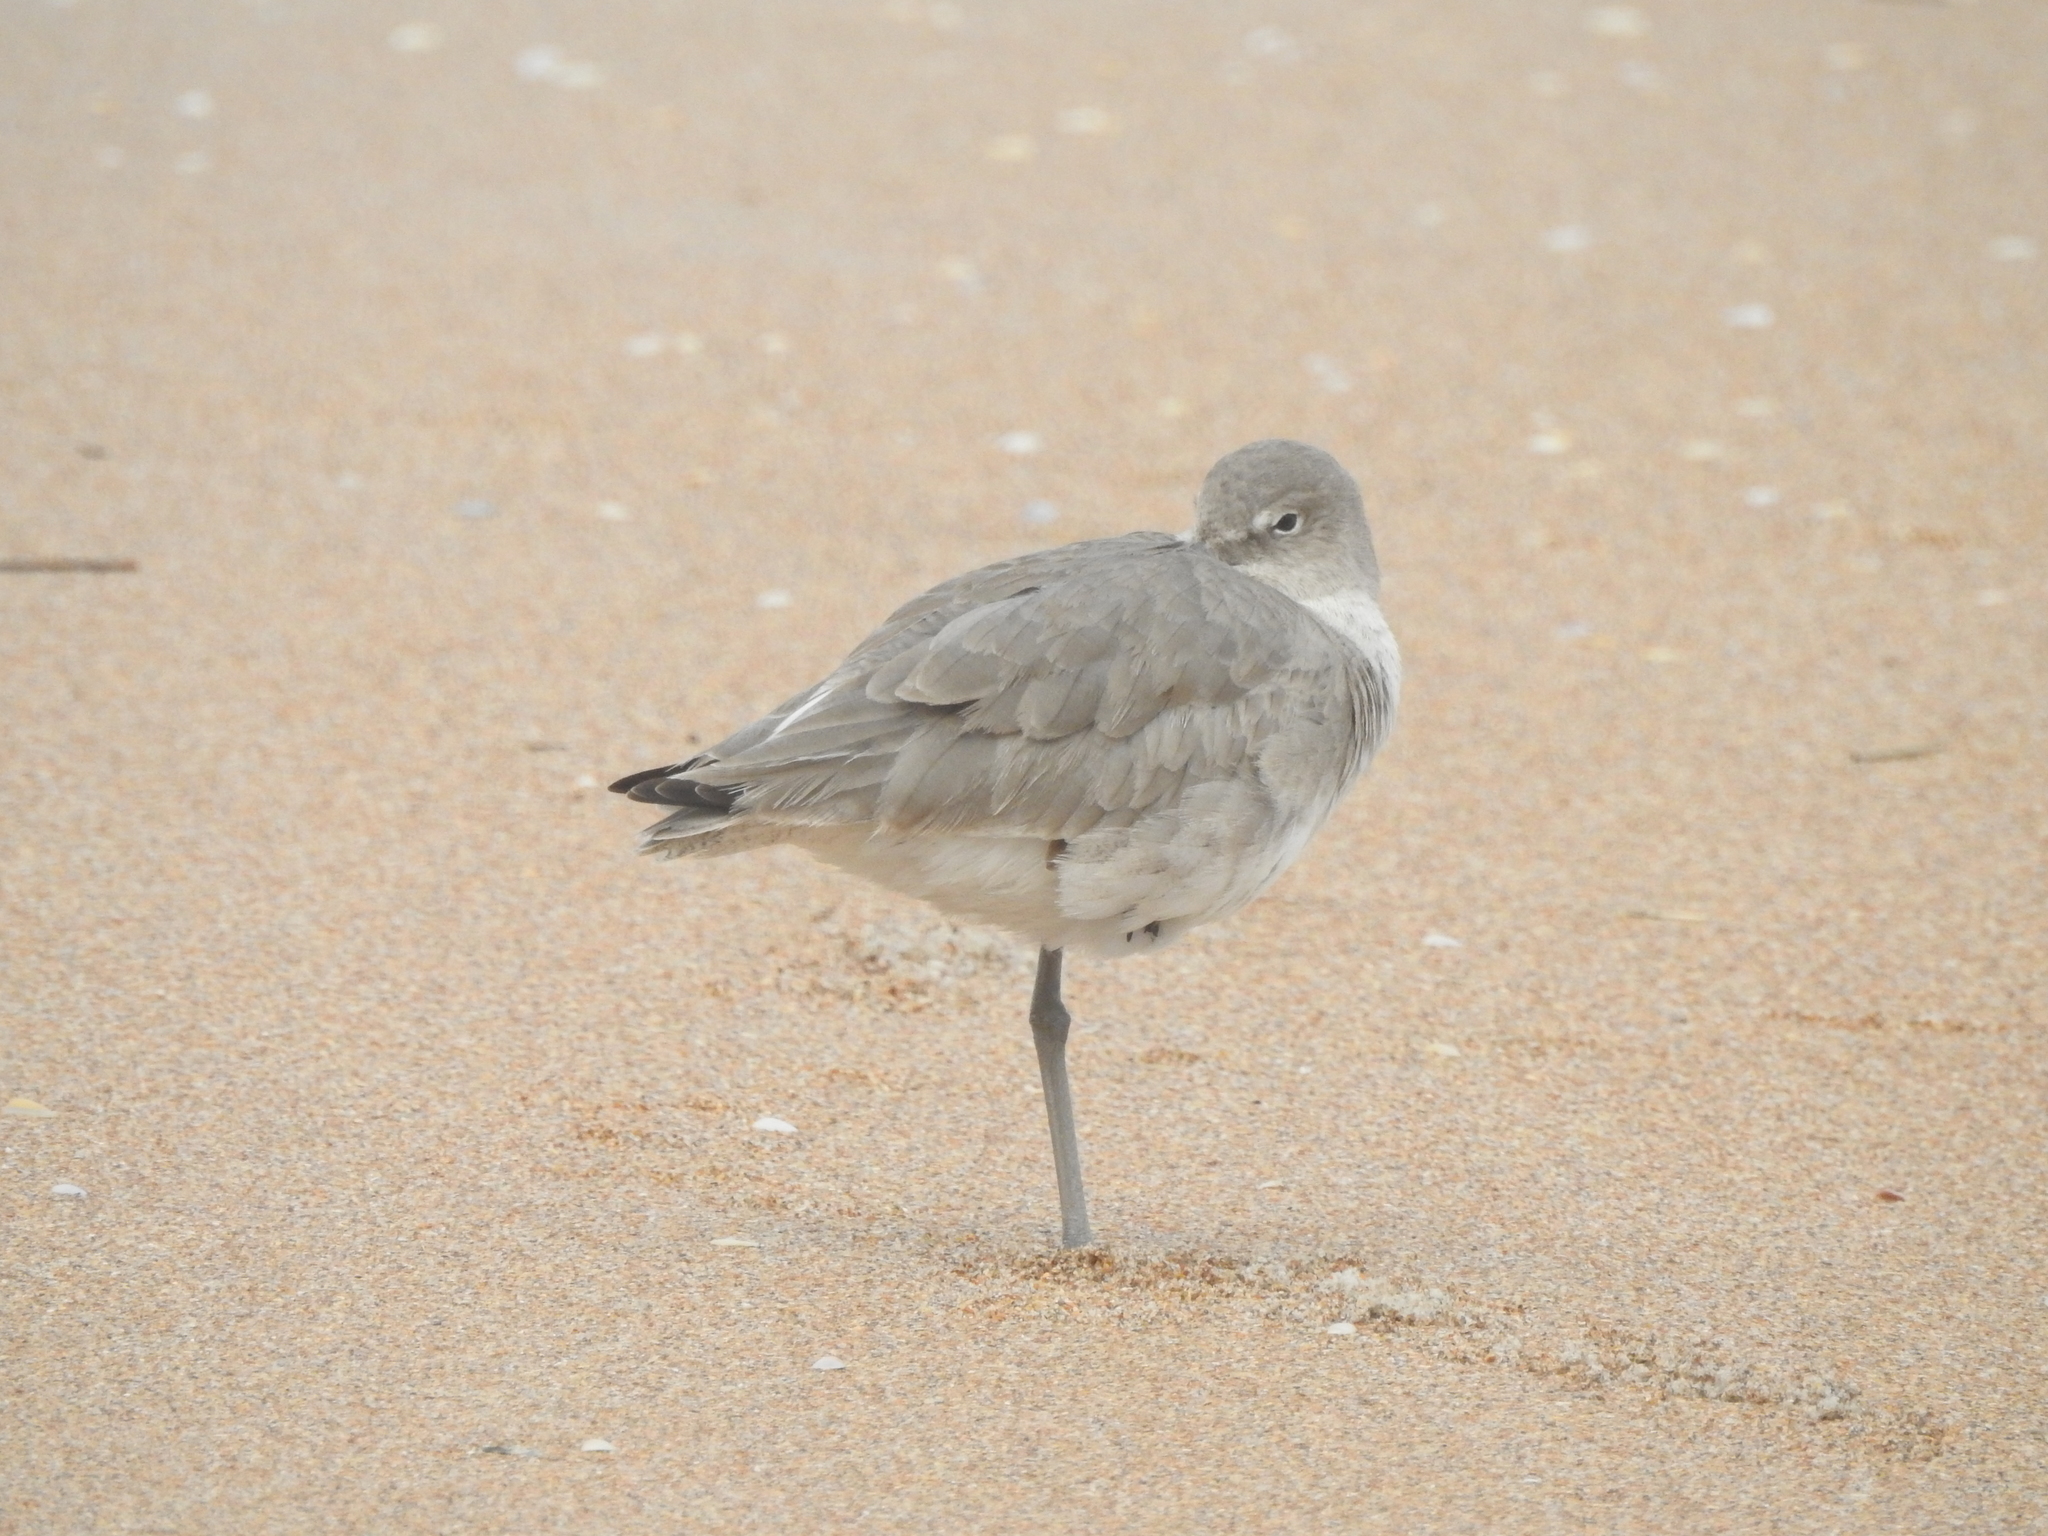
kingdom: Animalia
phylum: Chordata
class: Aves
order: Charadriiformes
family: Scolopacidae
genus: Tringa
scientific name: Tringa semipalmata
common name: Willet
